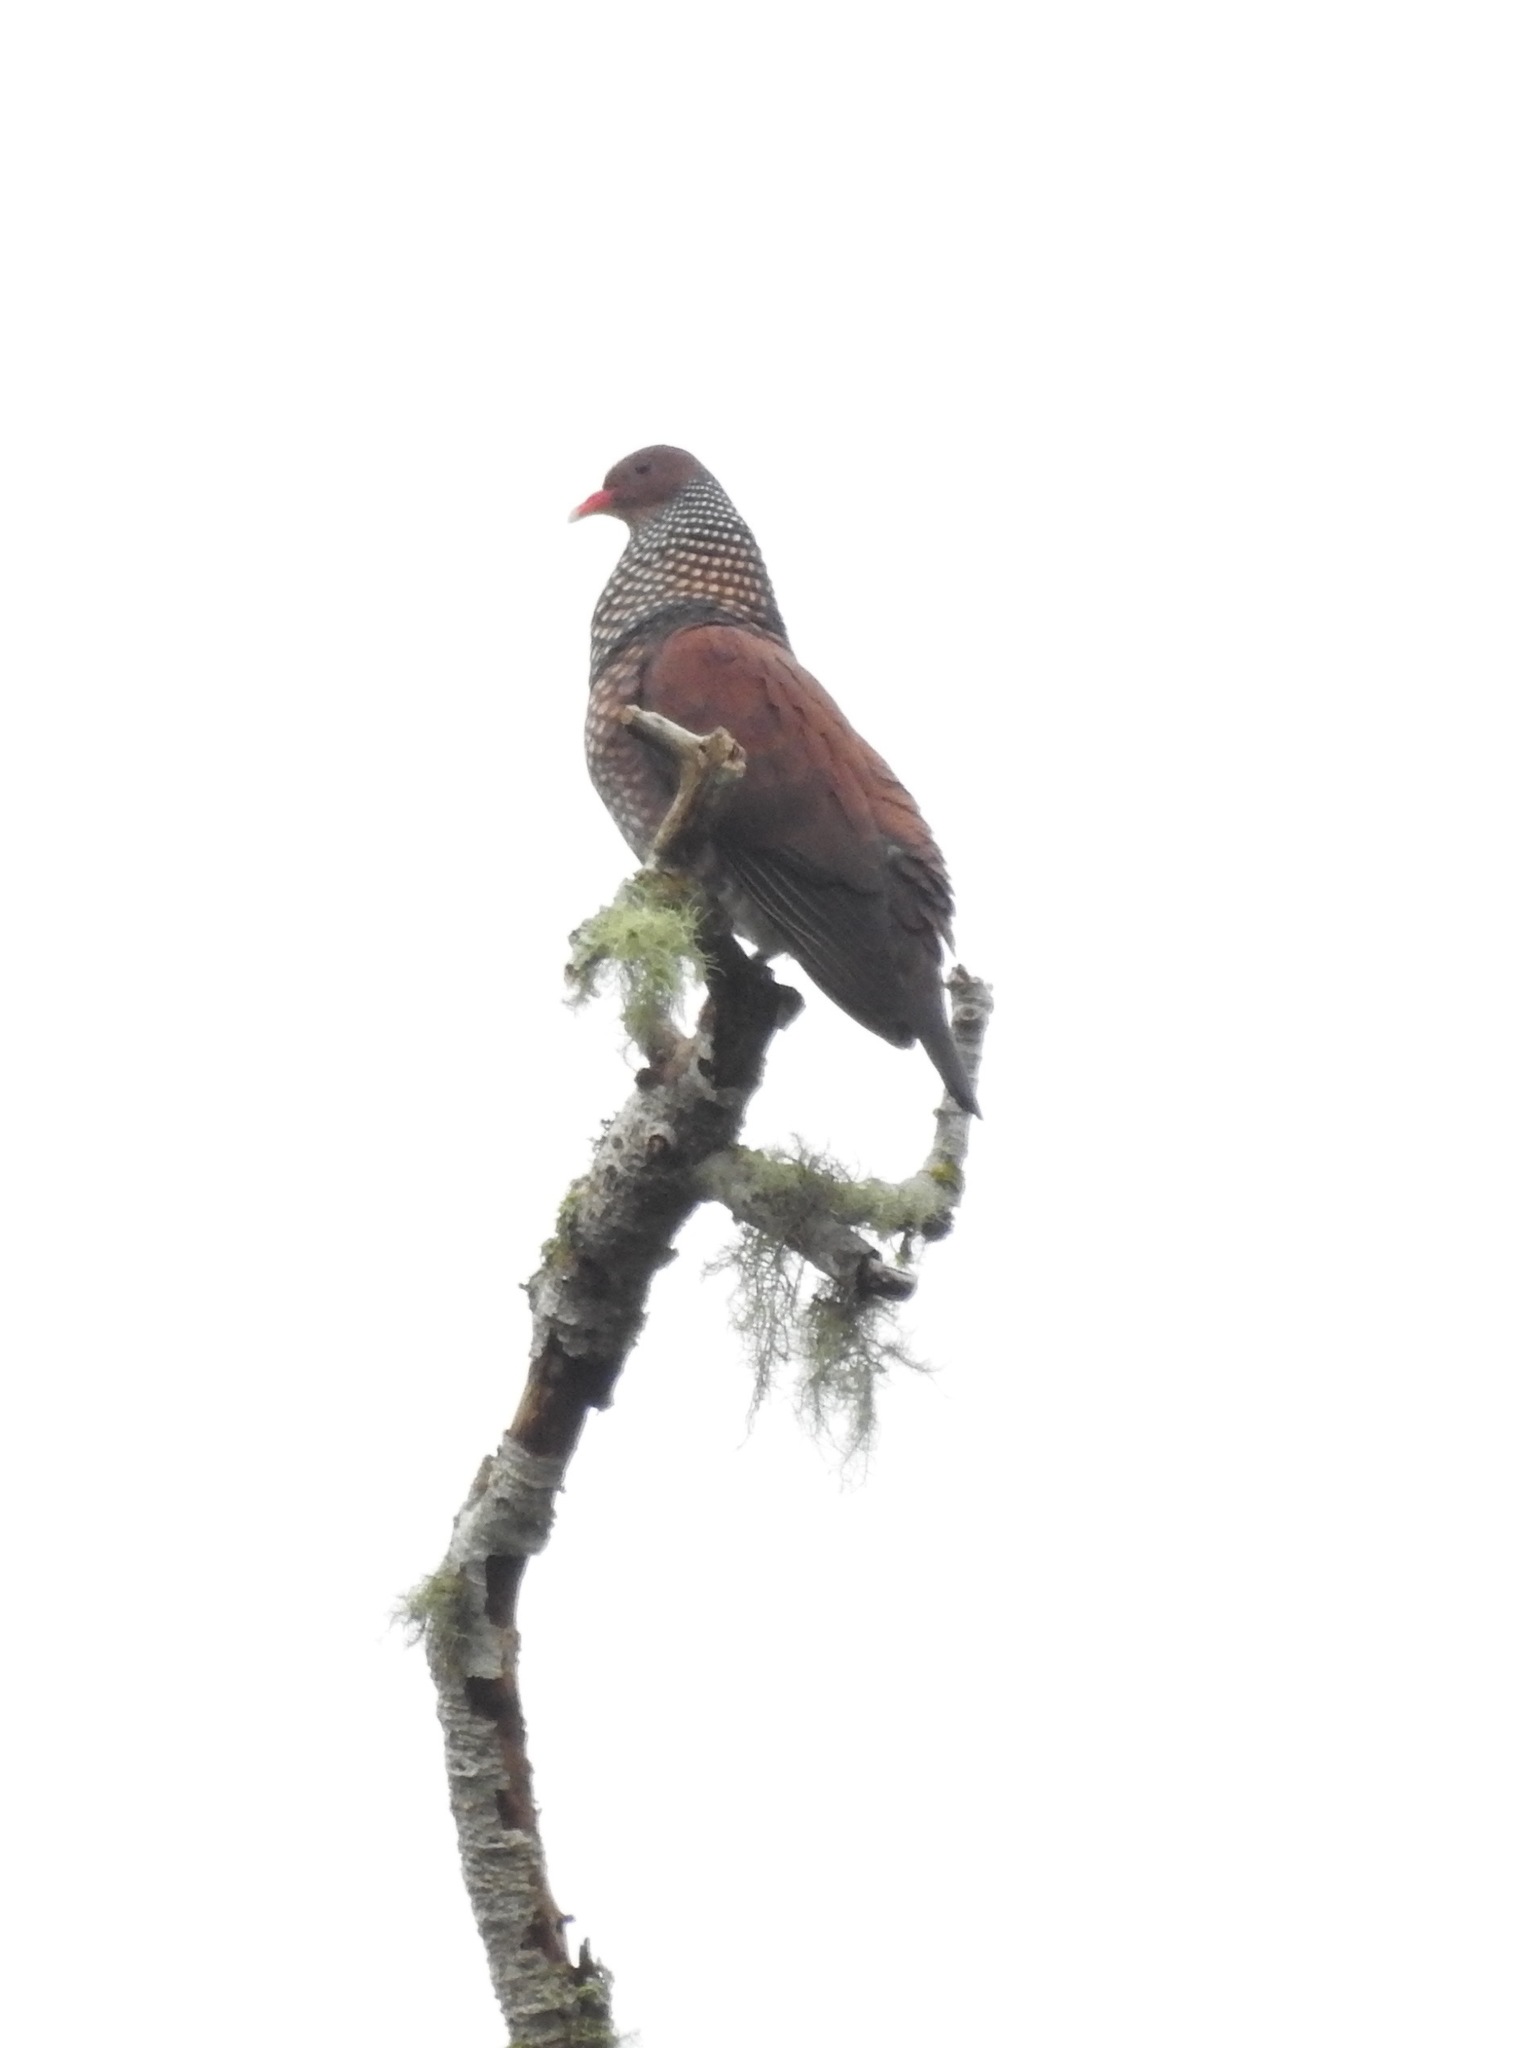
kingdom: Animalia
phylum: Chordata
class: Aves
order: Columbiformes
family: Columbidae
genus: Patagioenas
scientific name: Patagioenas speciosa
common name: Scaled pigeon
